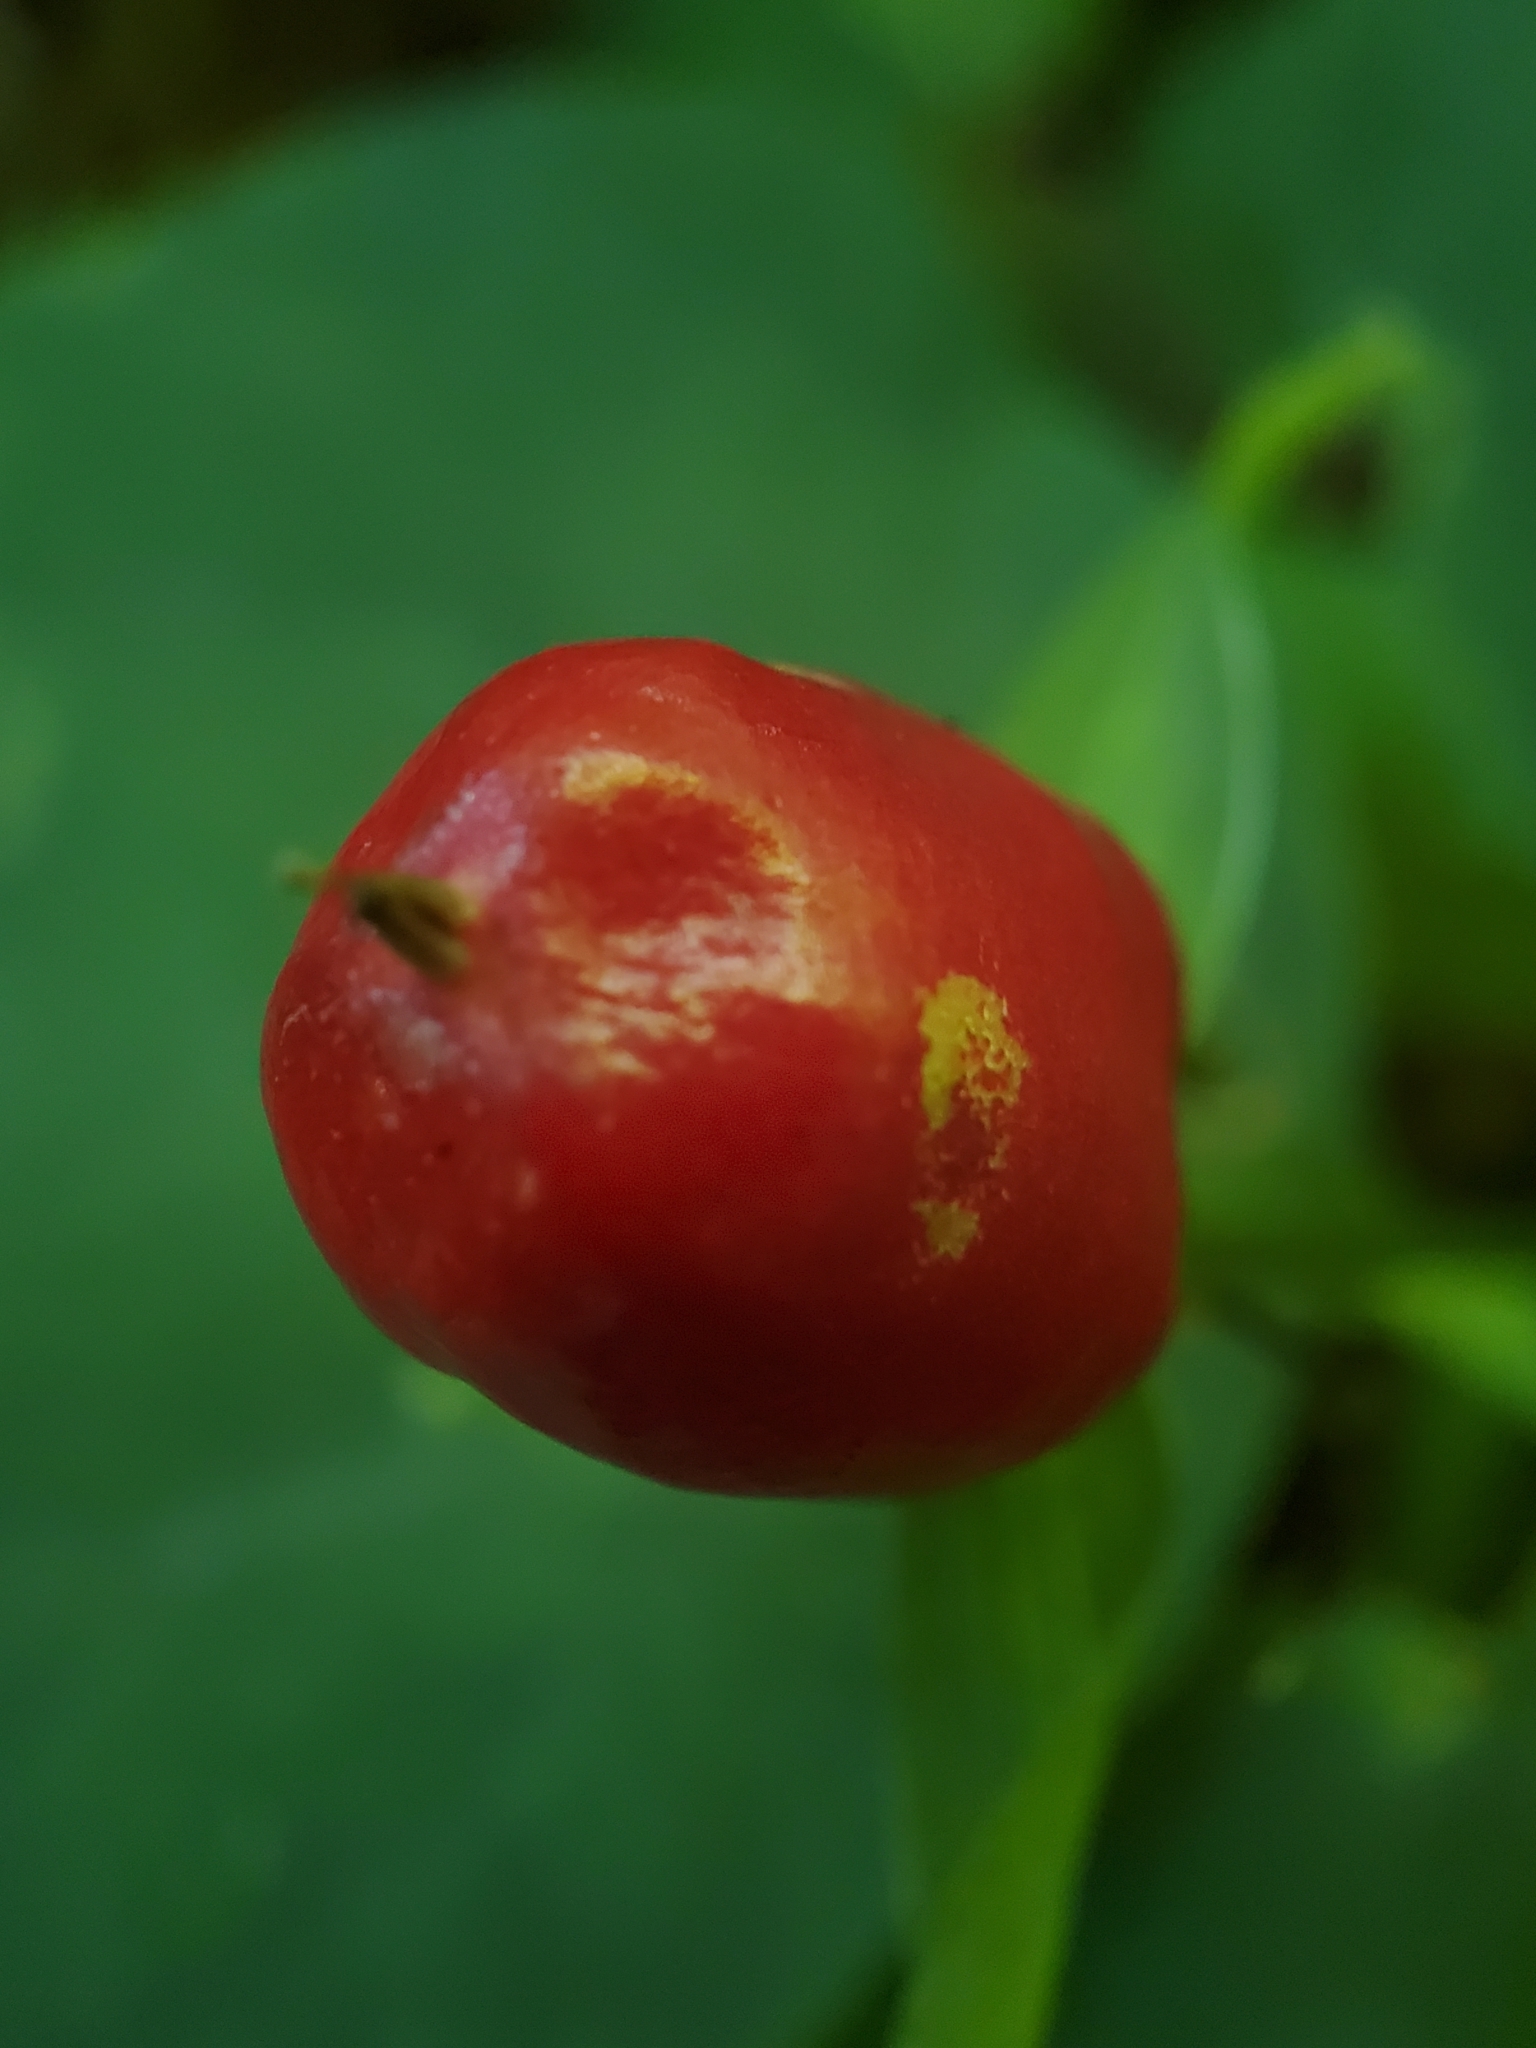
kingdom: Plantae
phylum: Tracheophyta
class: Liliopsida
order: Liliales
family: Melanthiaceae
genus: Trillium
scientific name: Trillium undulatum
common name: Paint trillium
